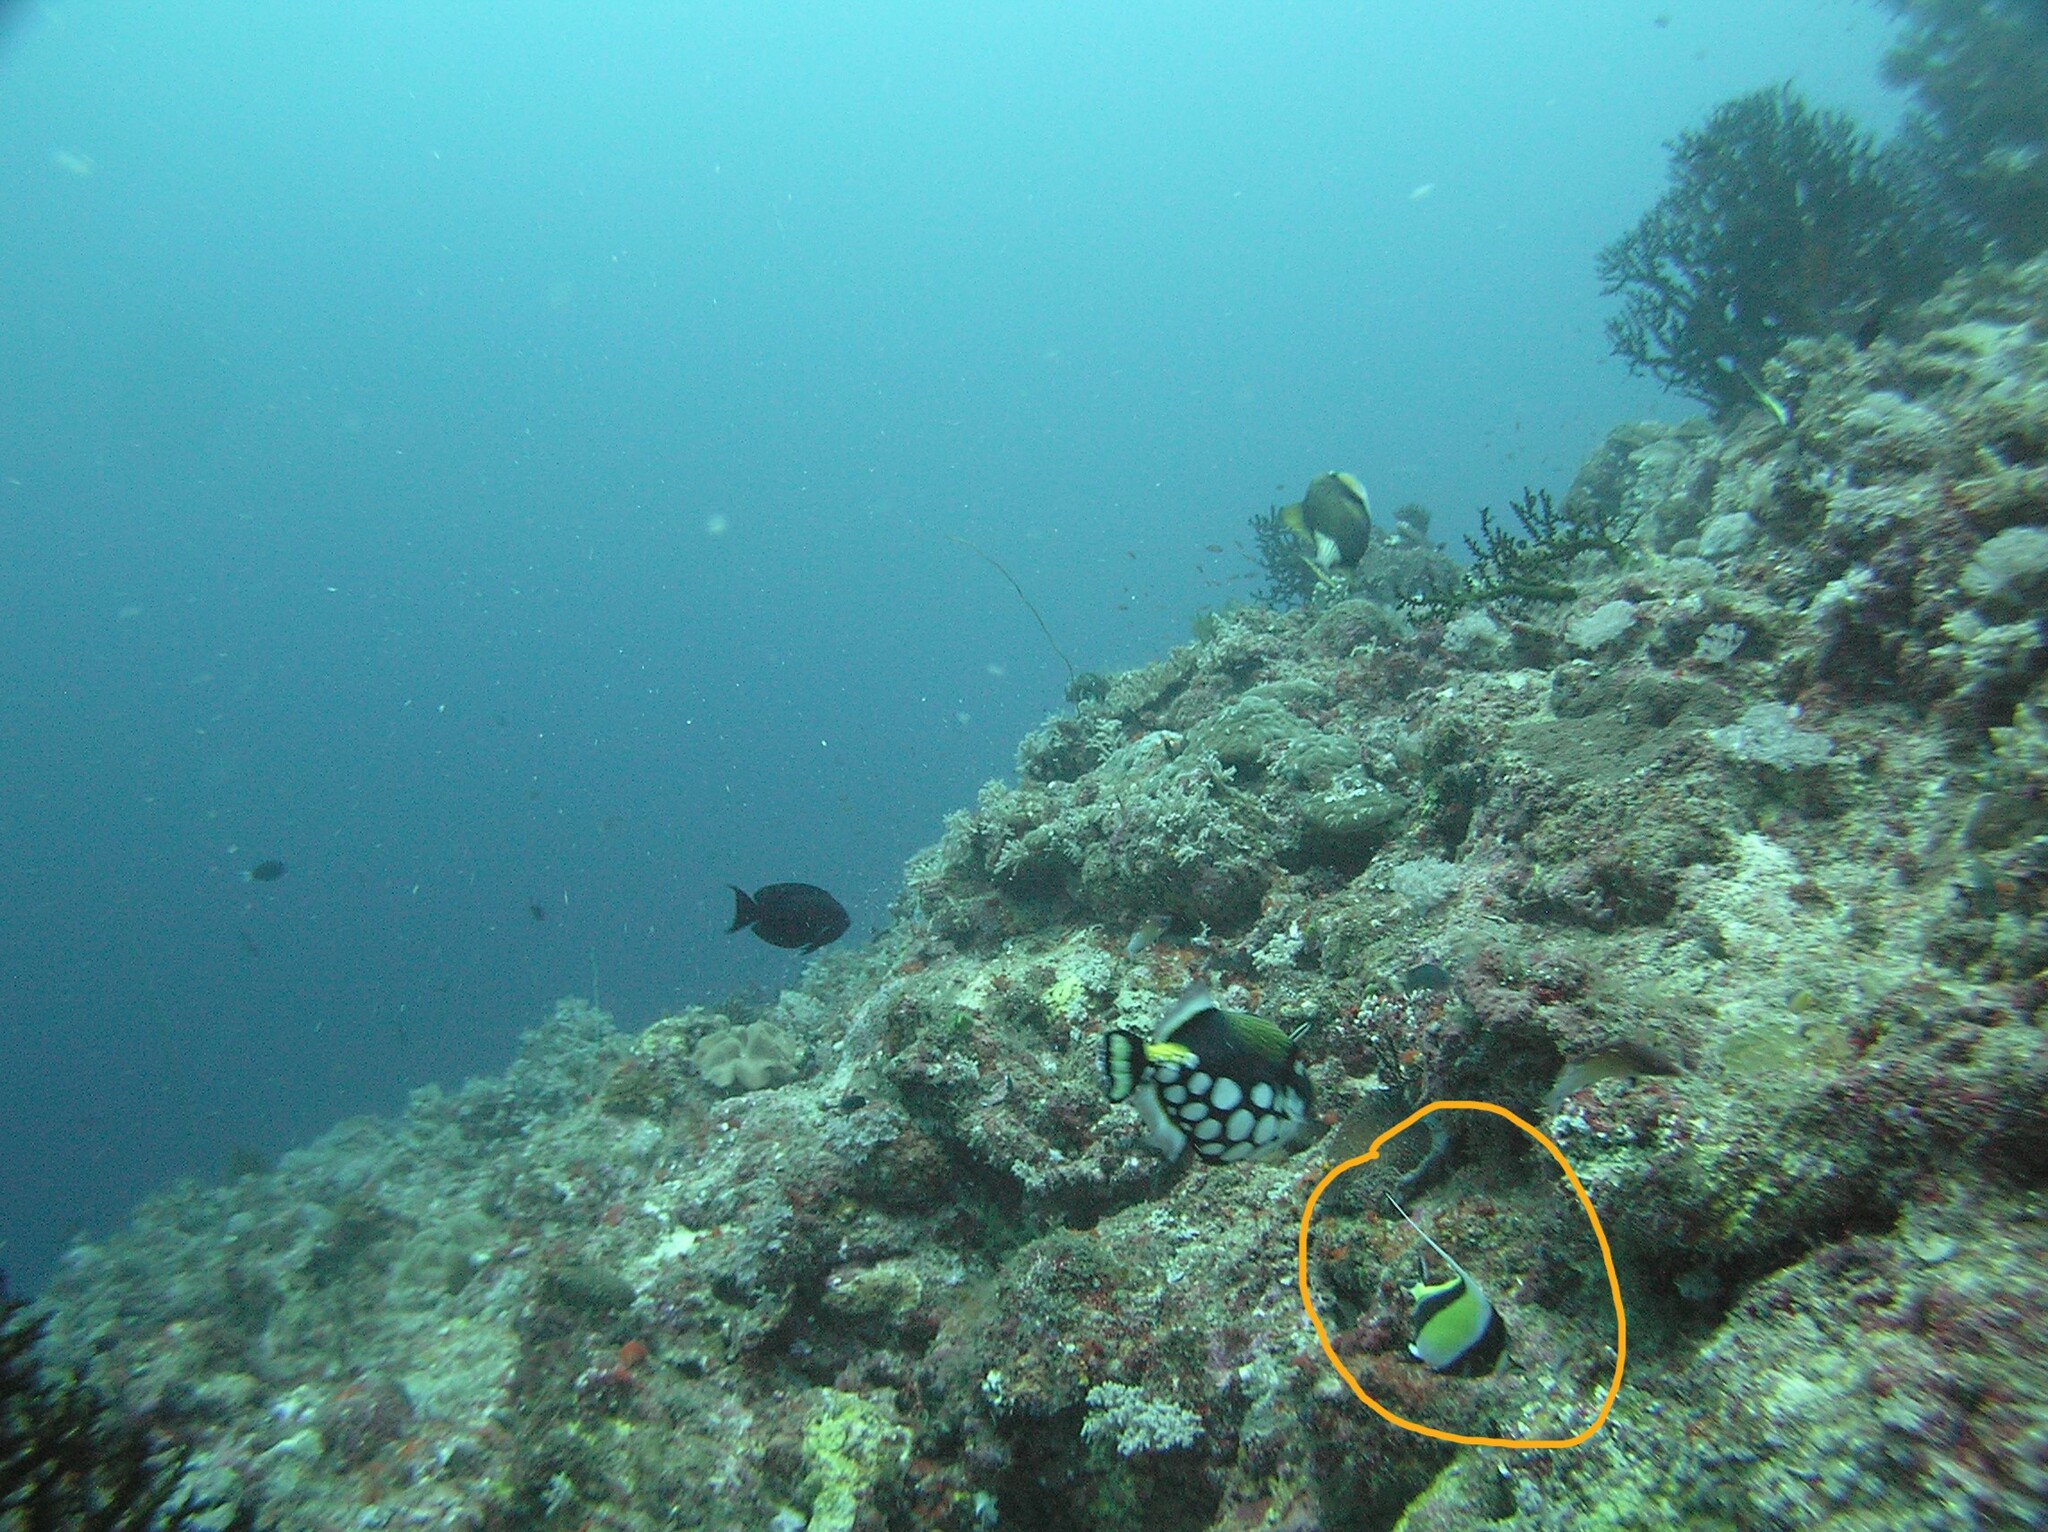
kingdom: Animalia
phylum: Chordata
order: Perciformes
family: Zanclidae
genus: Zanclus
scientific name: Zanclus cornutus
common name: Moorish idol
